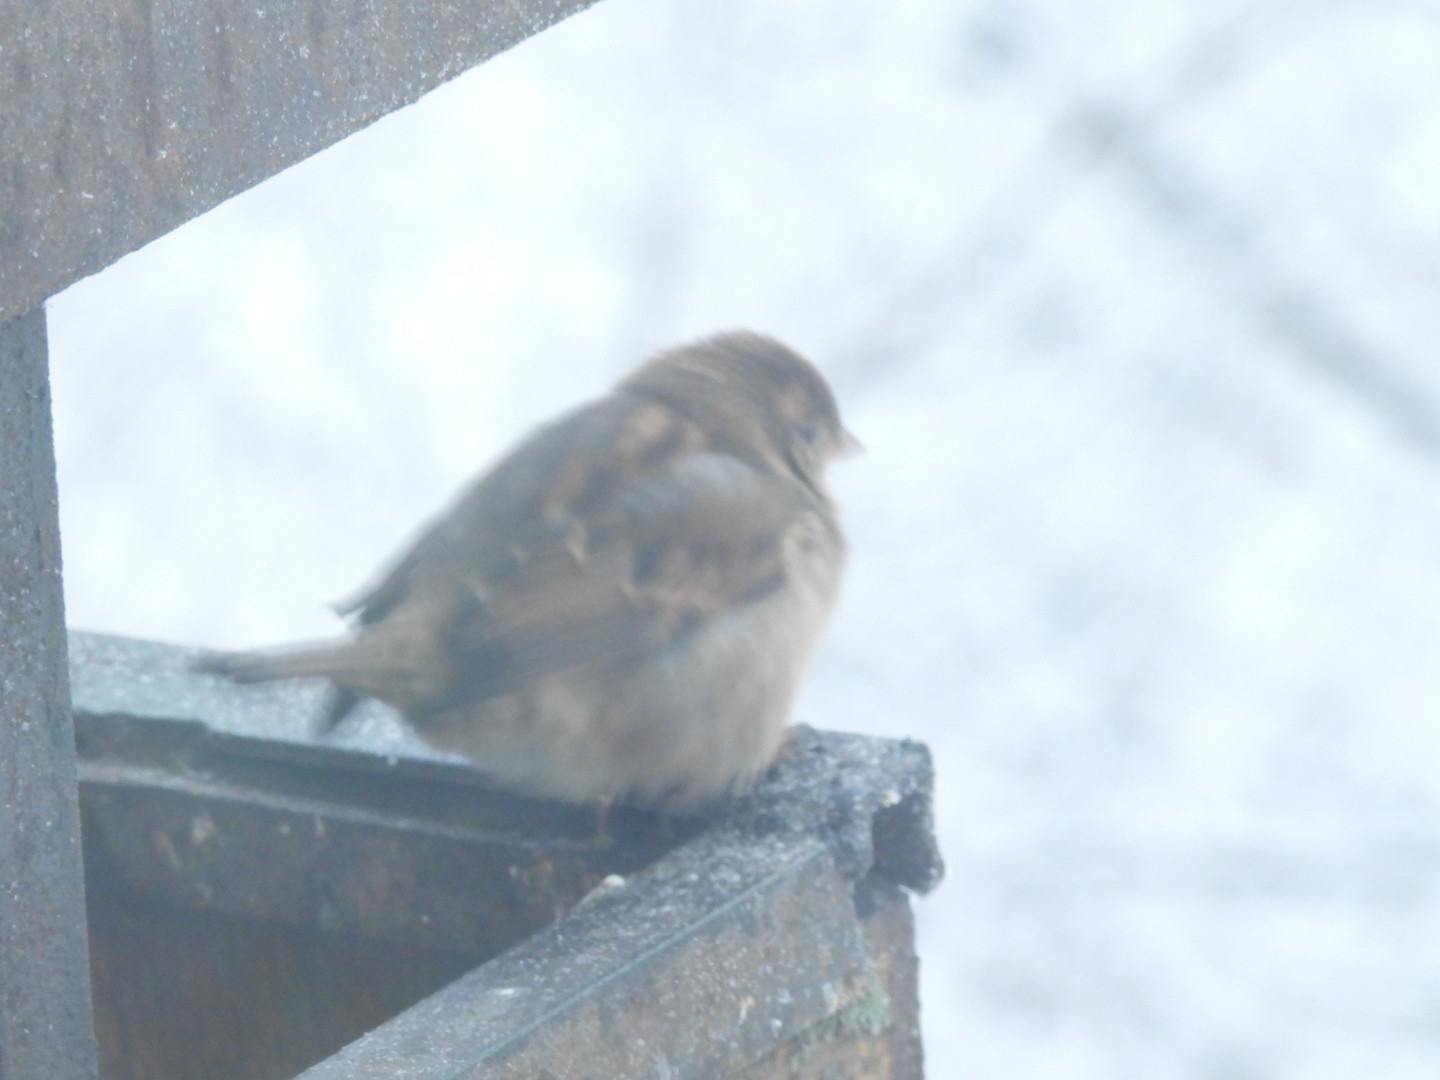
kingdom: Animalia
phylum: Chordata
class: Aves
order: Passeriformes
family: Passeridae
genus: Passer
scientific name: Passer domesticus
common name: House sparrow
